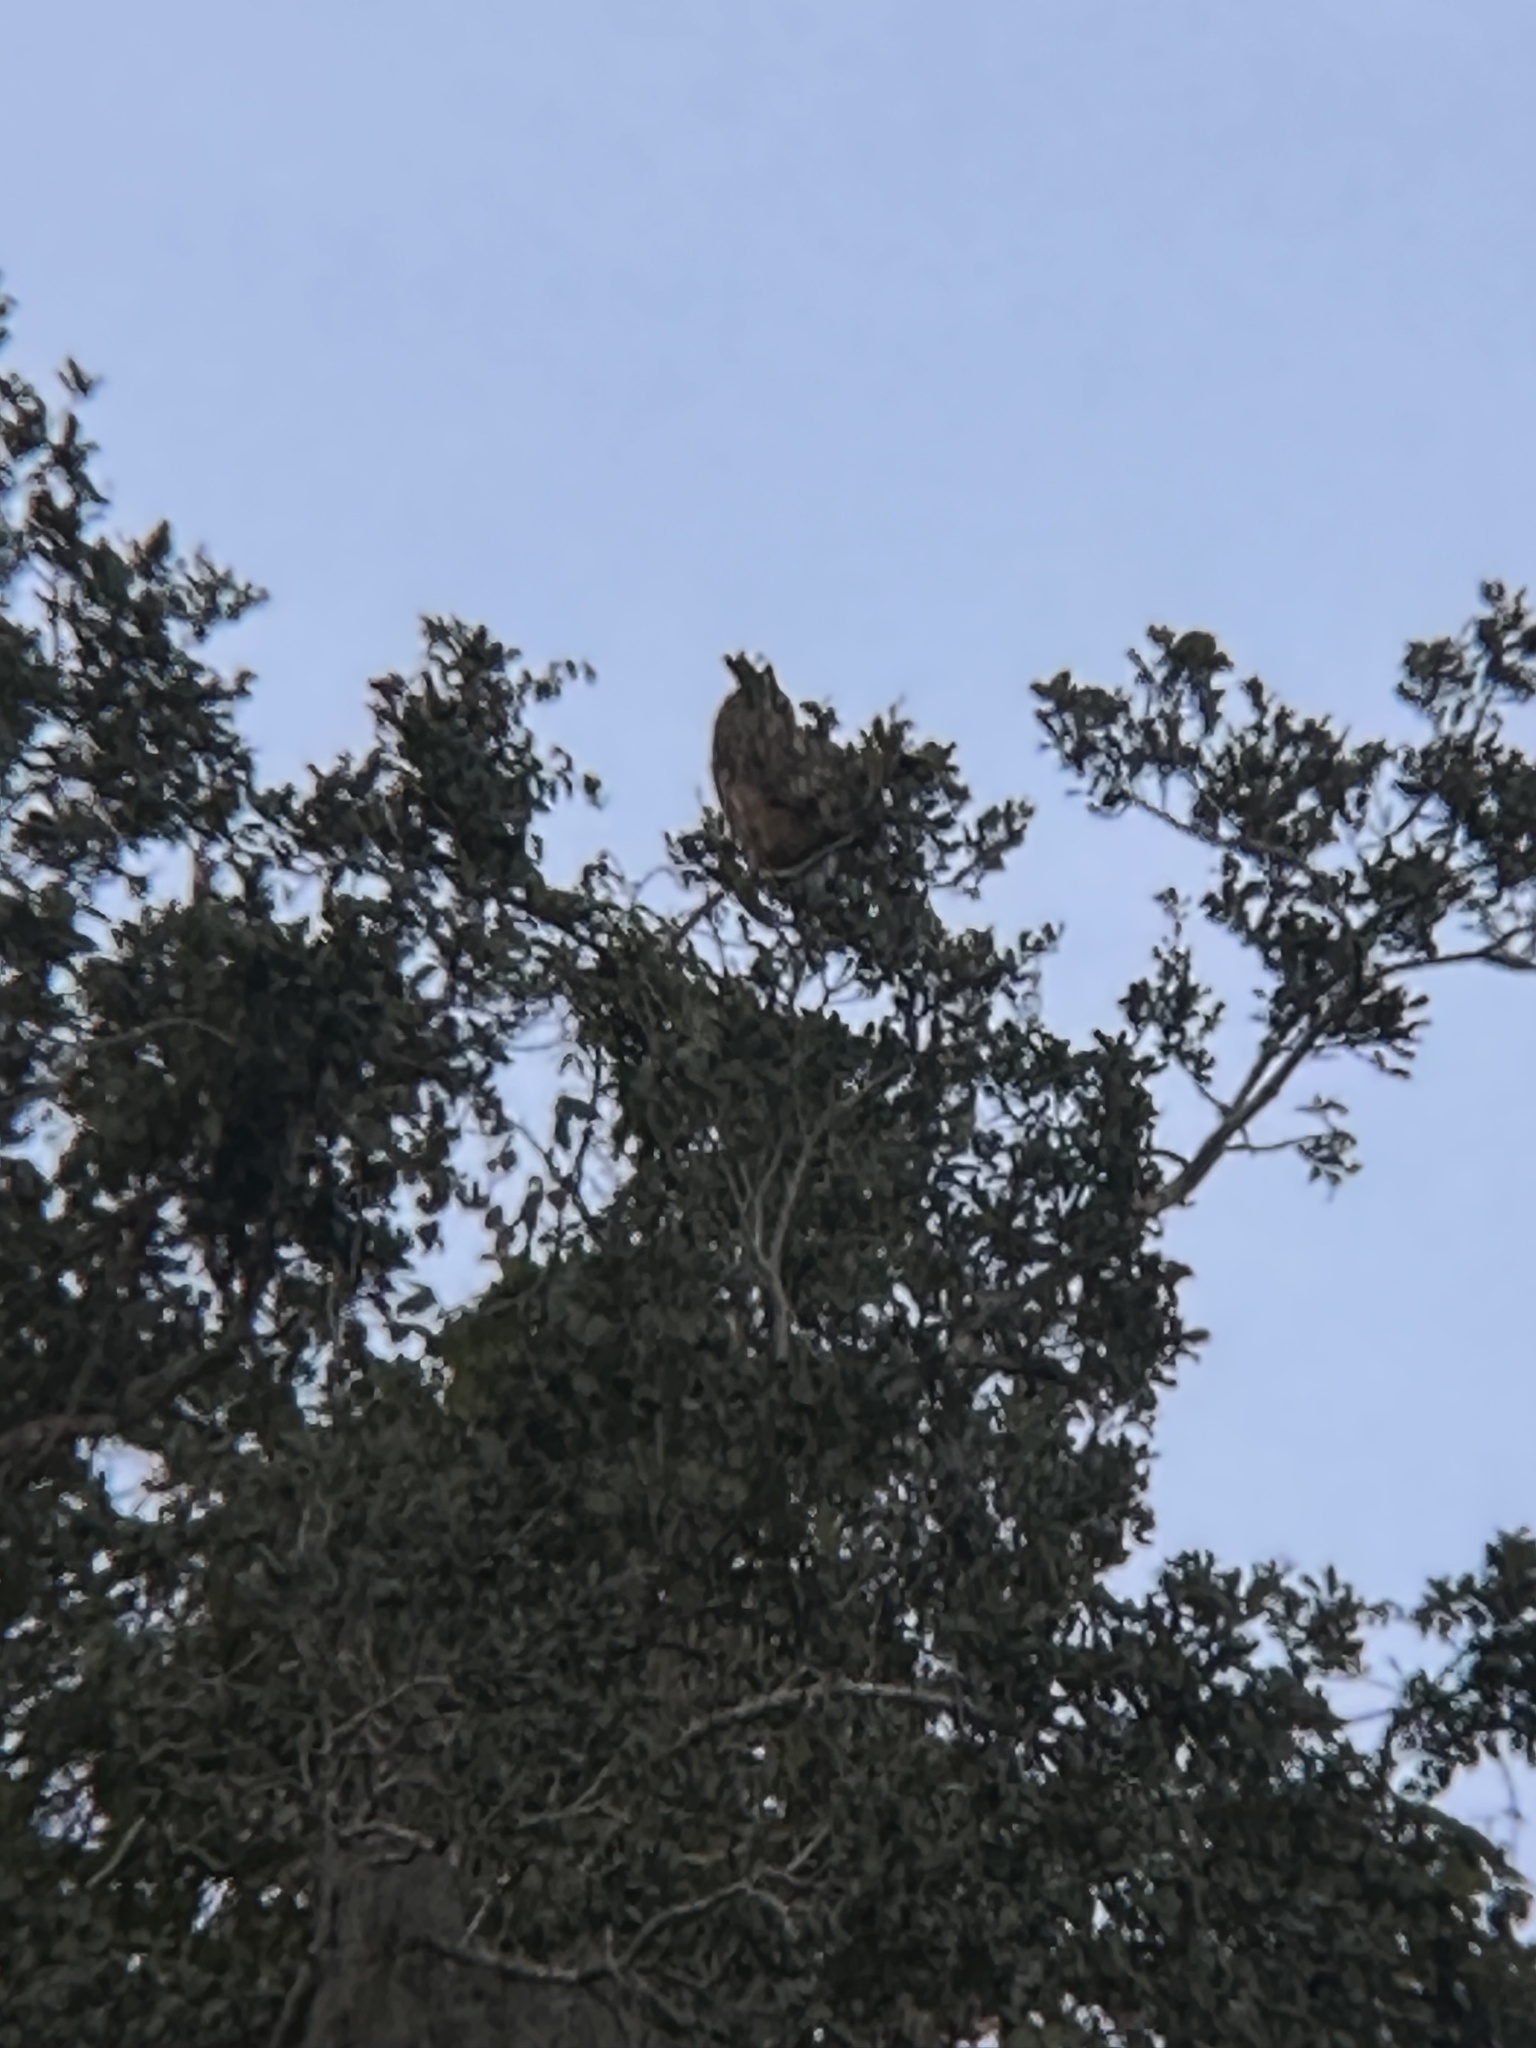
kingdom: Animalia
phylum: Chordata
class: Aves
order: Strigiformes
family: Strigidae
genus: Bubo
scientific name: Bubo virginianus
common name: Great horned owl
